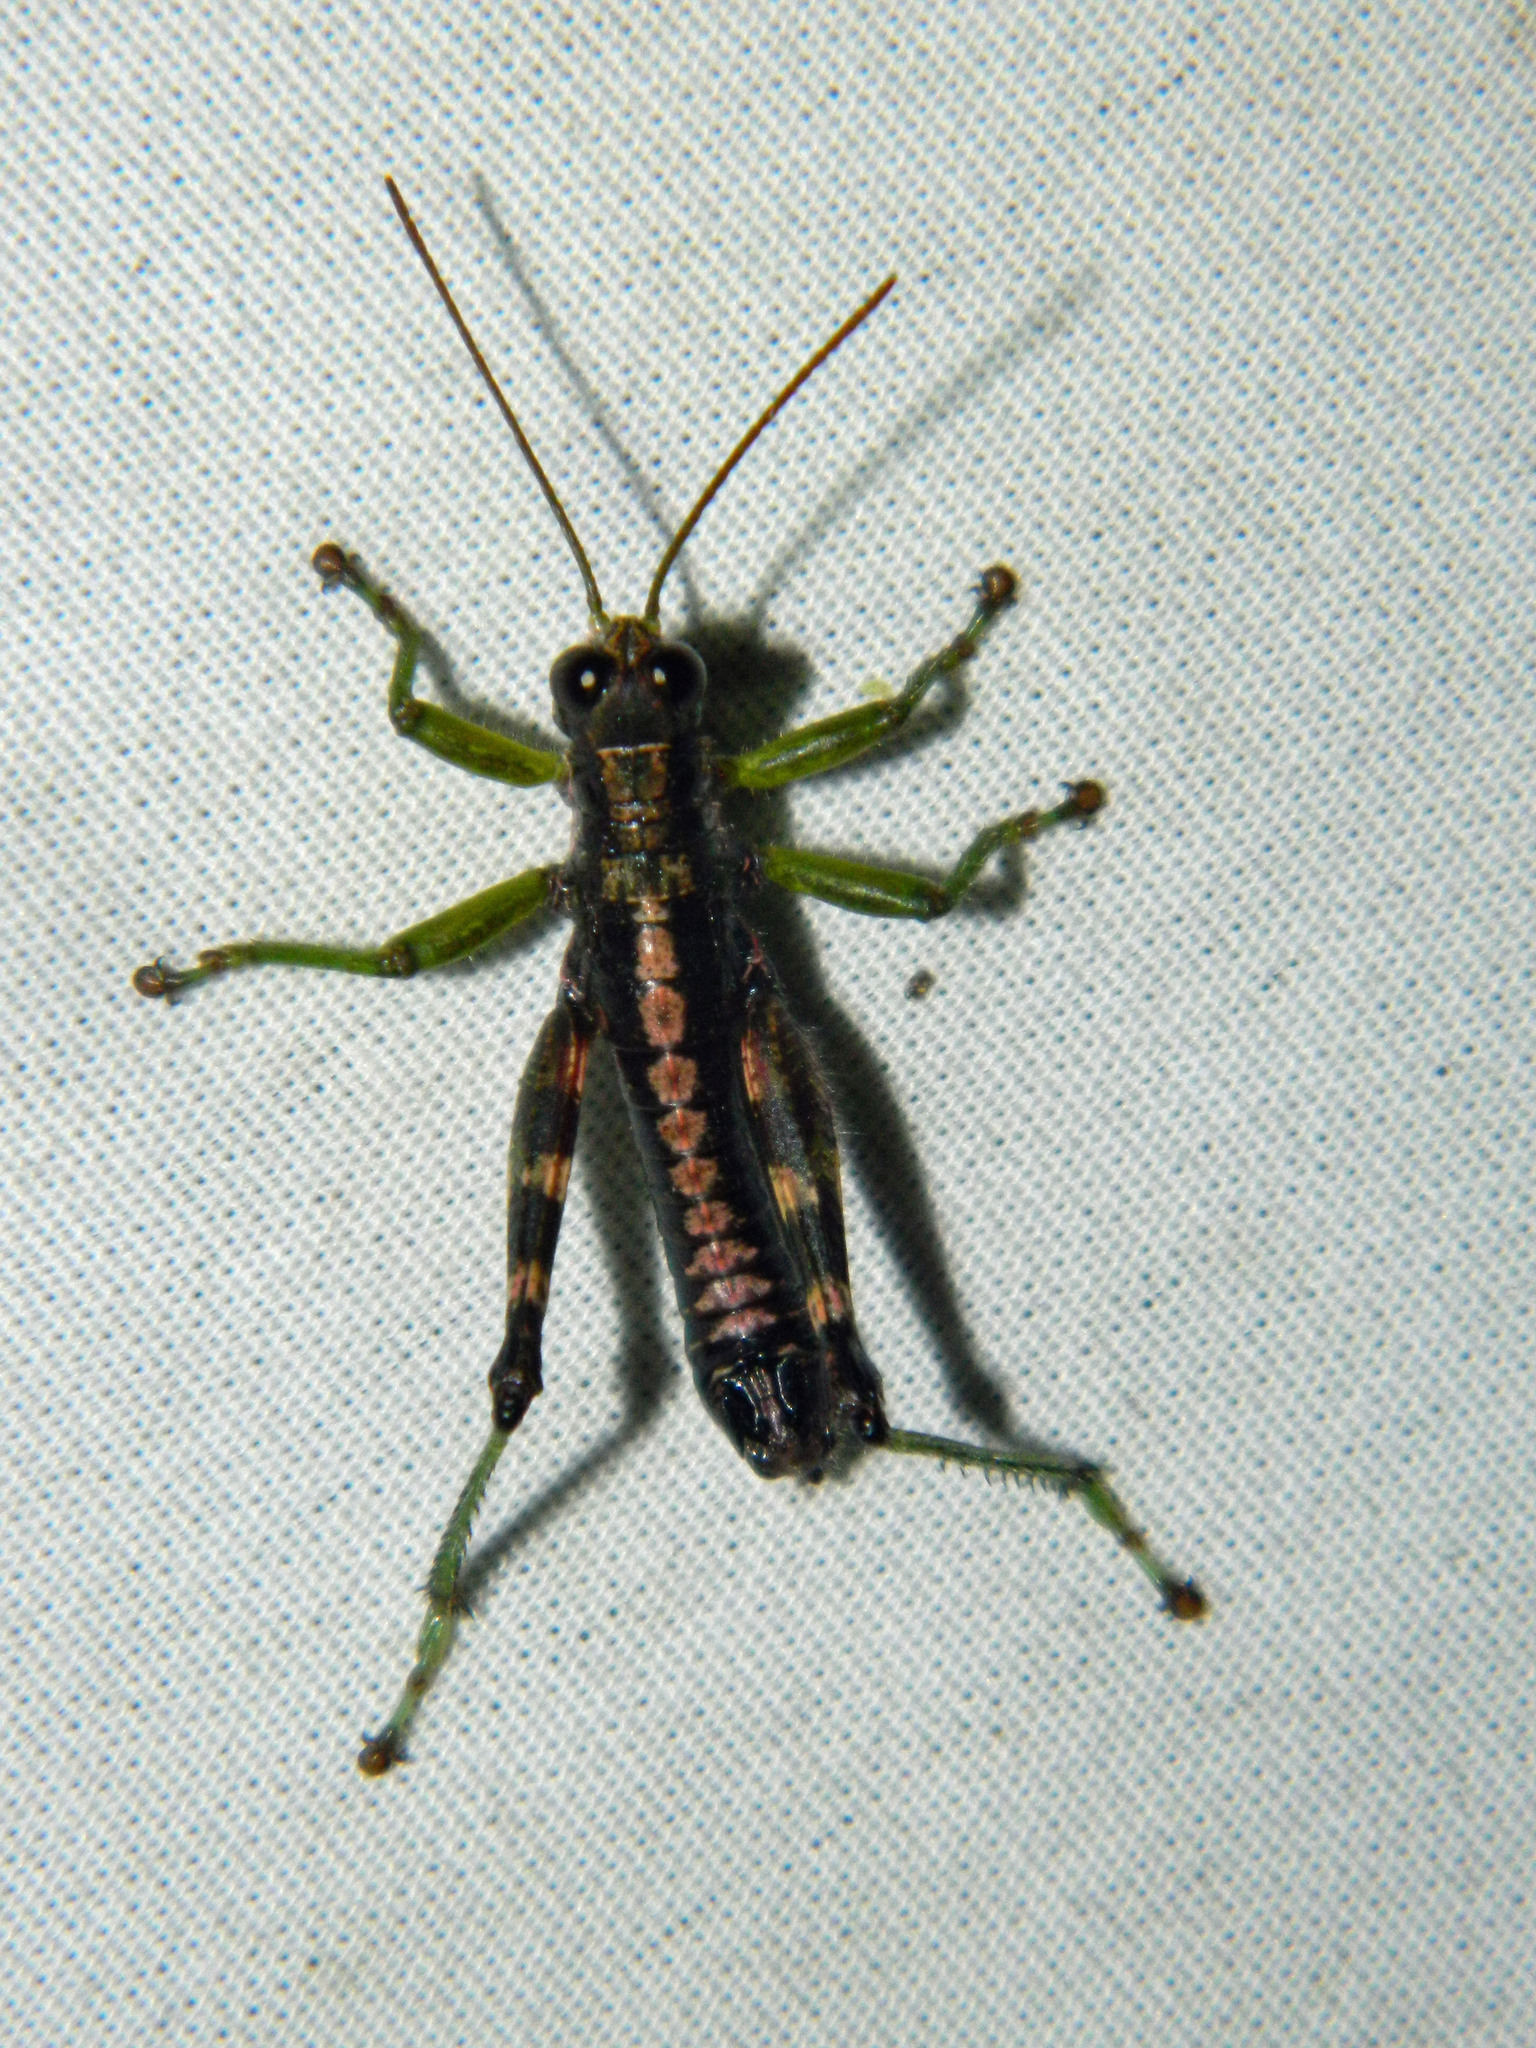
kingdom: Animalia
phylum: Arthropoda
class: Insecta
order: Orthoptera
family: Acrididae
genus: Booneacris
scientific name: Booneacris glacialis
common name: Wingless mountain grasshopper
